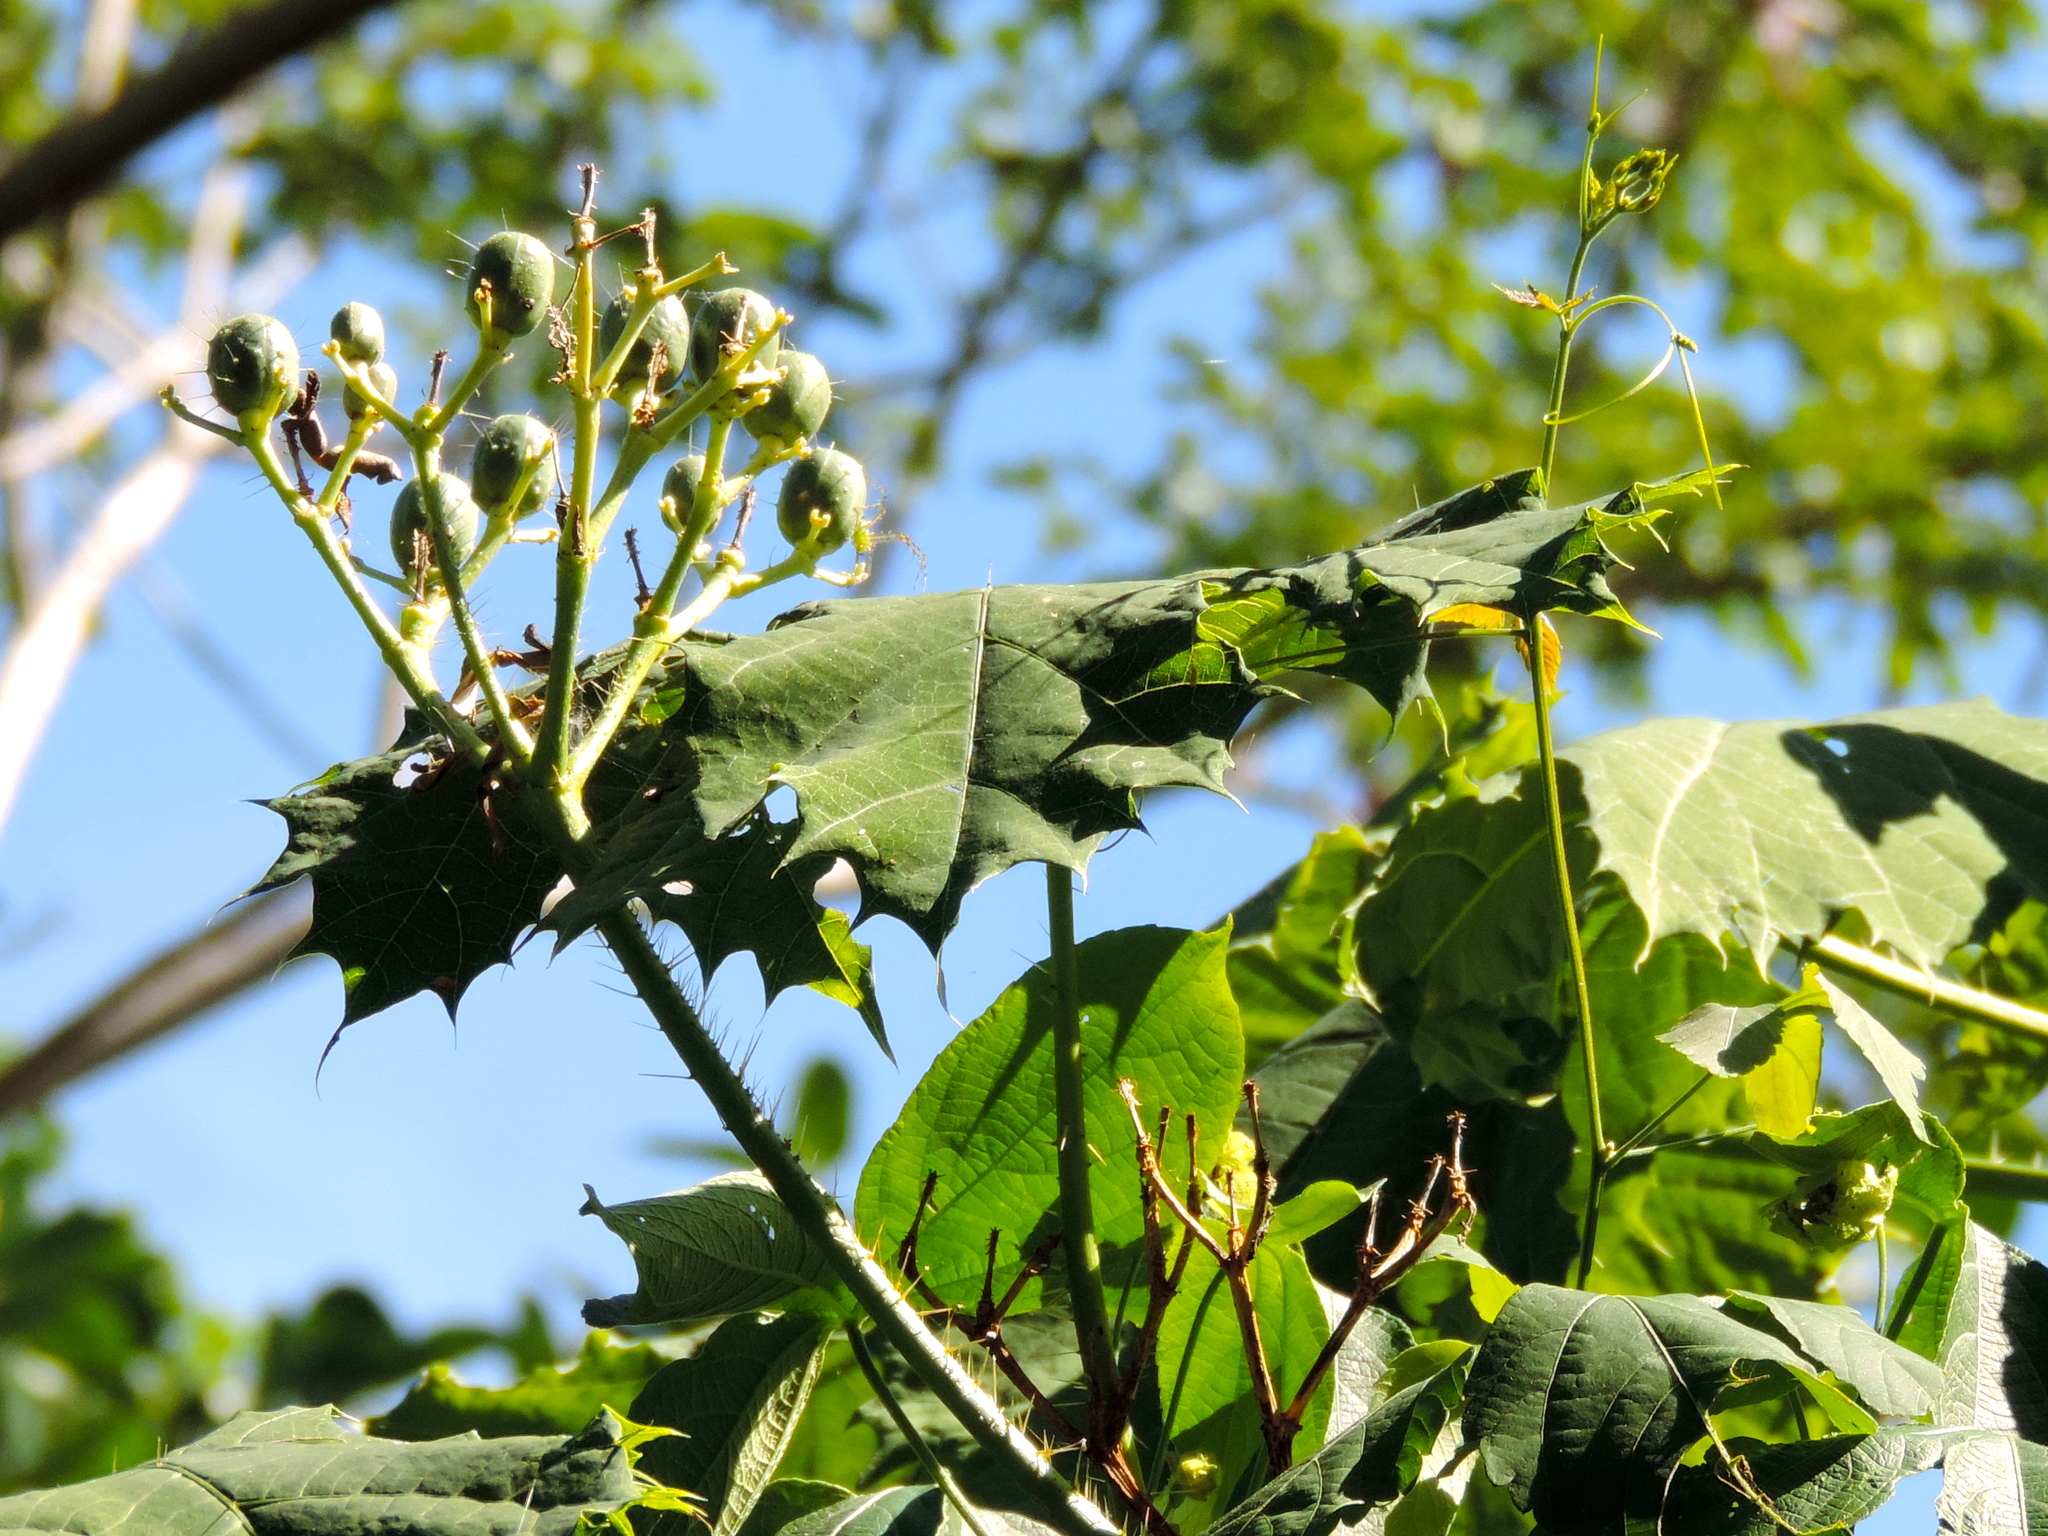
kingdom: Plantae
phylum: Tracheophyta
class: Magnoliopsida
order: Malpighiales
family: Euphorbiaceae
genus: Cnidoscolus
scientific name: Cnidoscolus aconitifolius
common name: Cabbage-star
